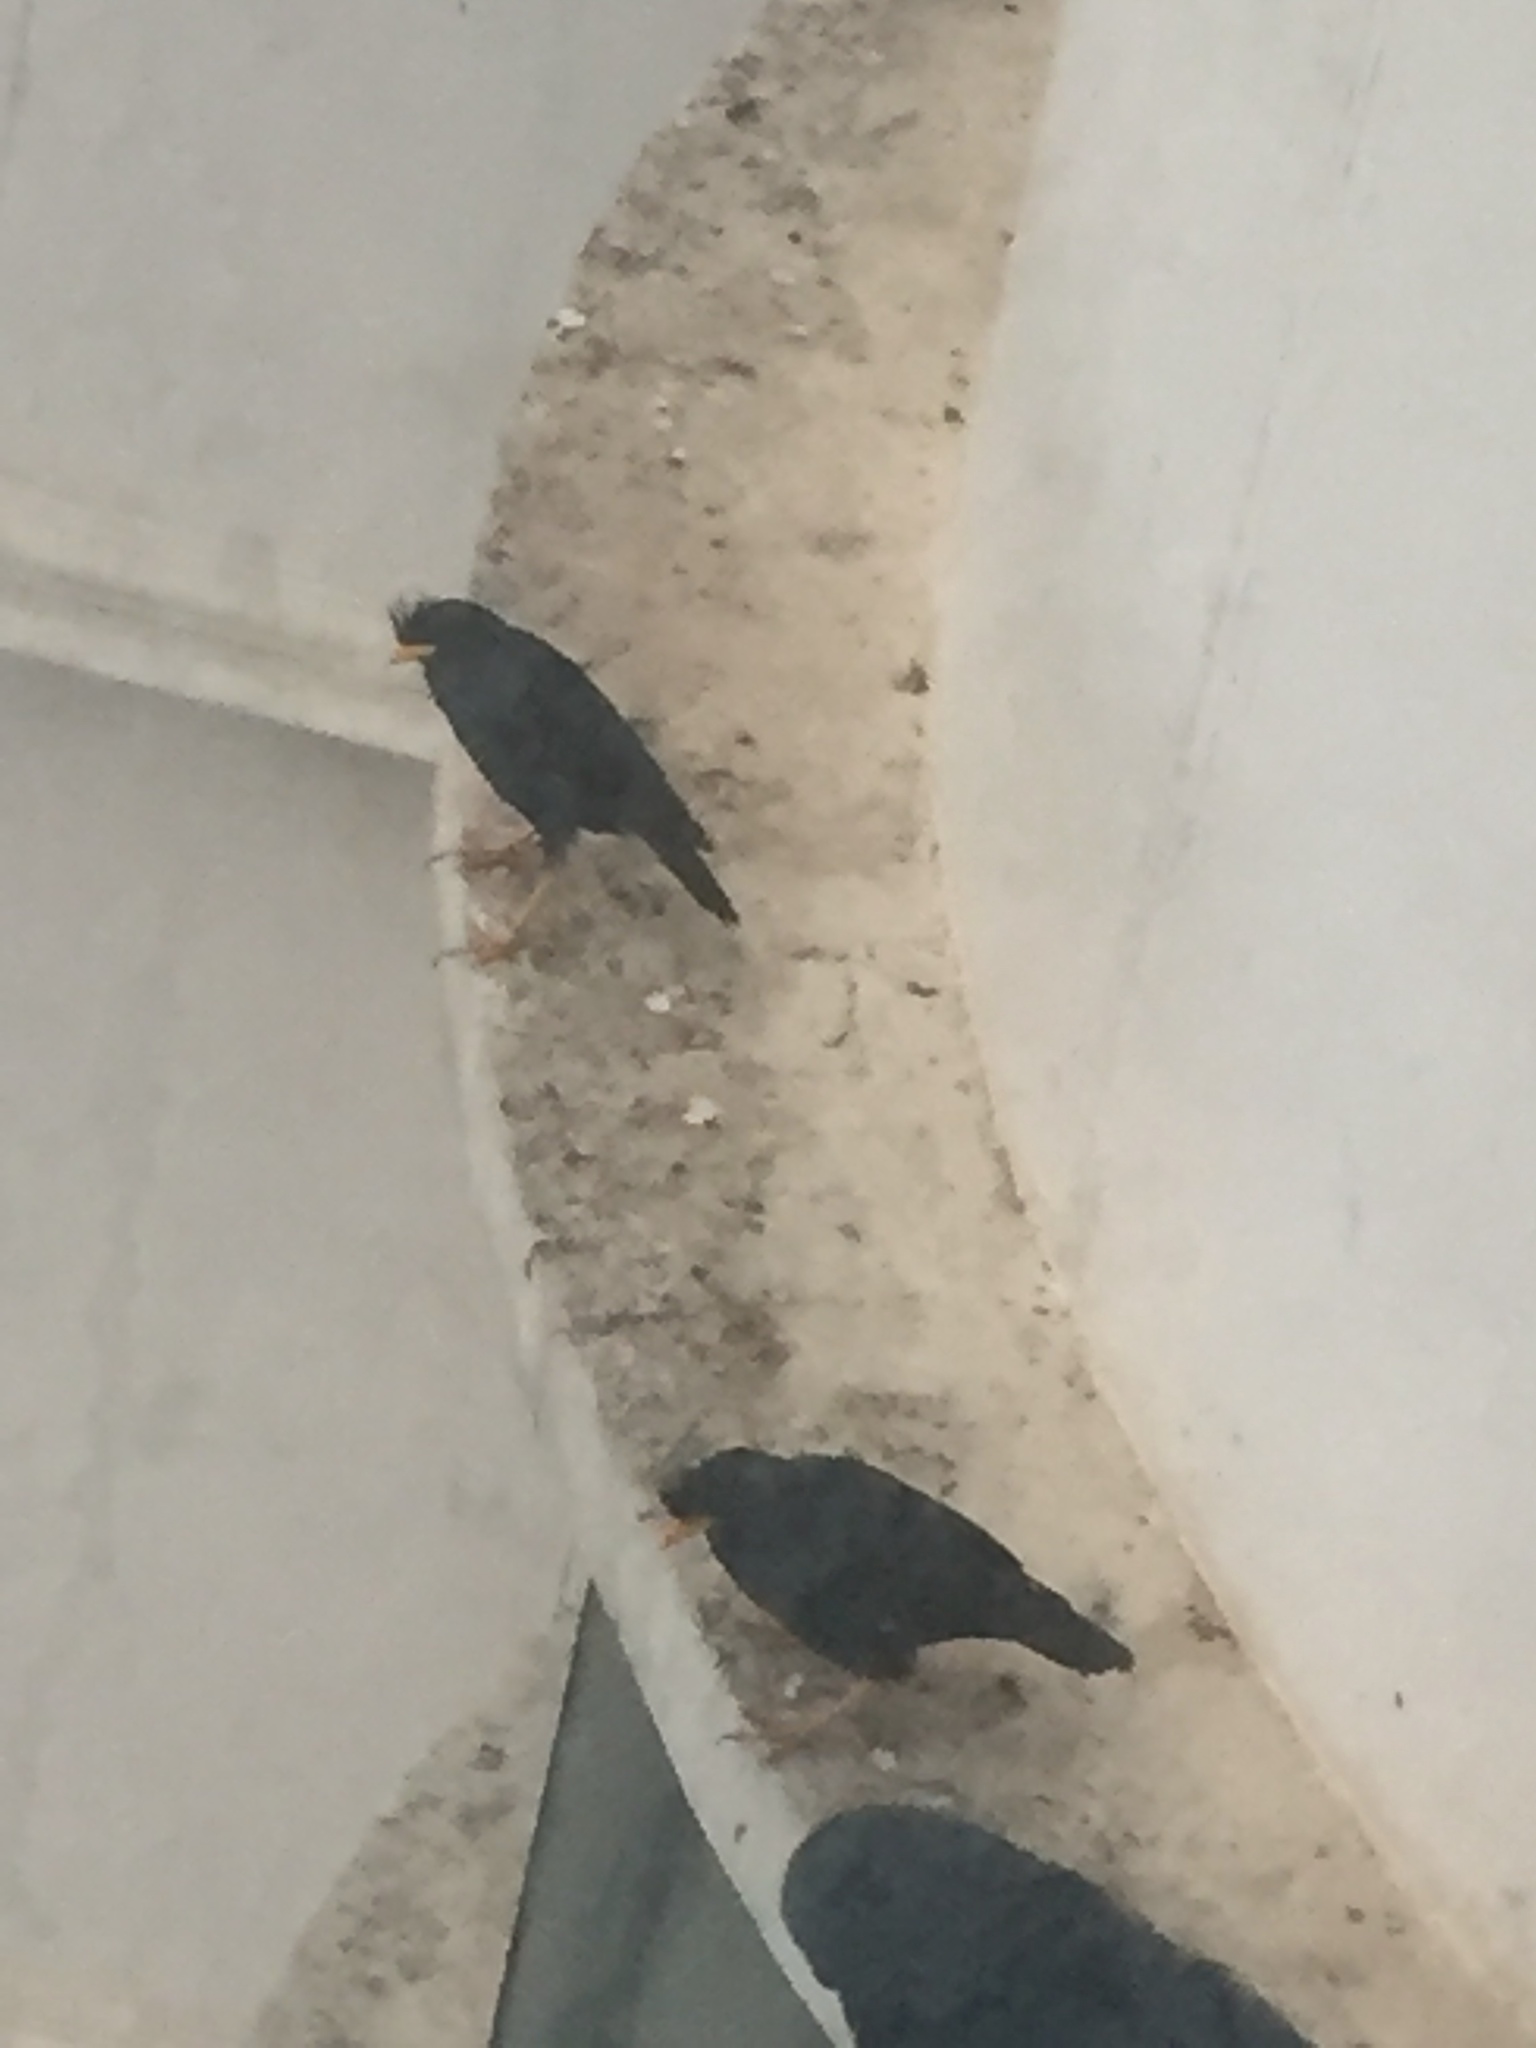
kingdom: Animalia
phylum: Chordata
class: Aves
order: Passeriformes
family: Sturnidae
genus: Acridotheres
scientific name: Acridotheres grandis
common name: Great myna
